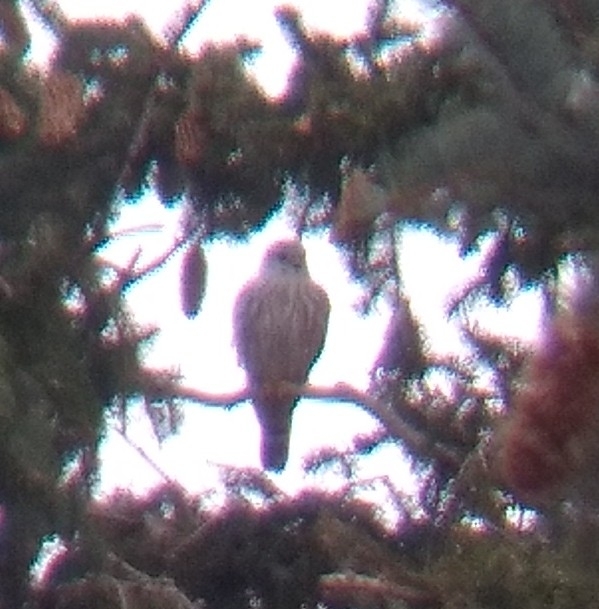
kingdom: Animalia
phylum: Chordata
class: Aves
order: Falconiformes
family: Falconidae
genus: Falco
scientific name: Falco columbarius
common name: Merlin
